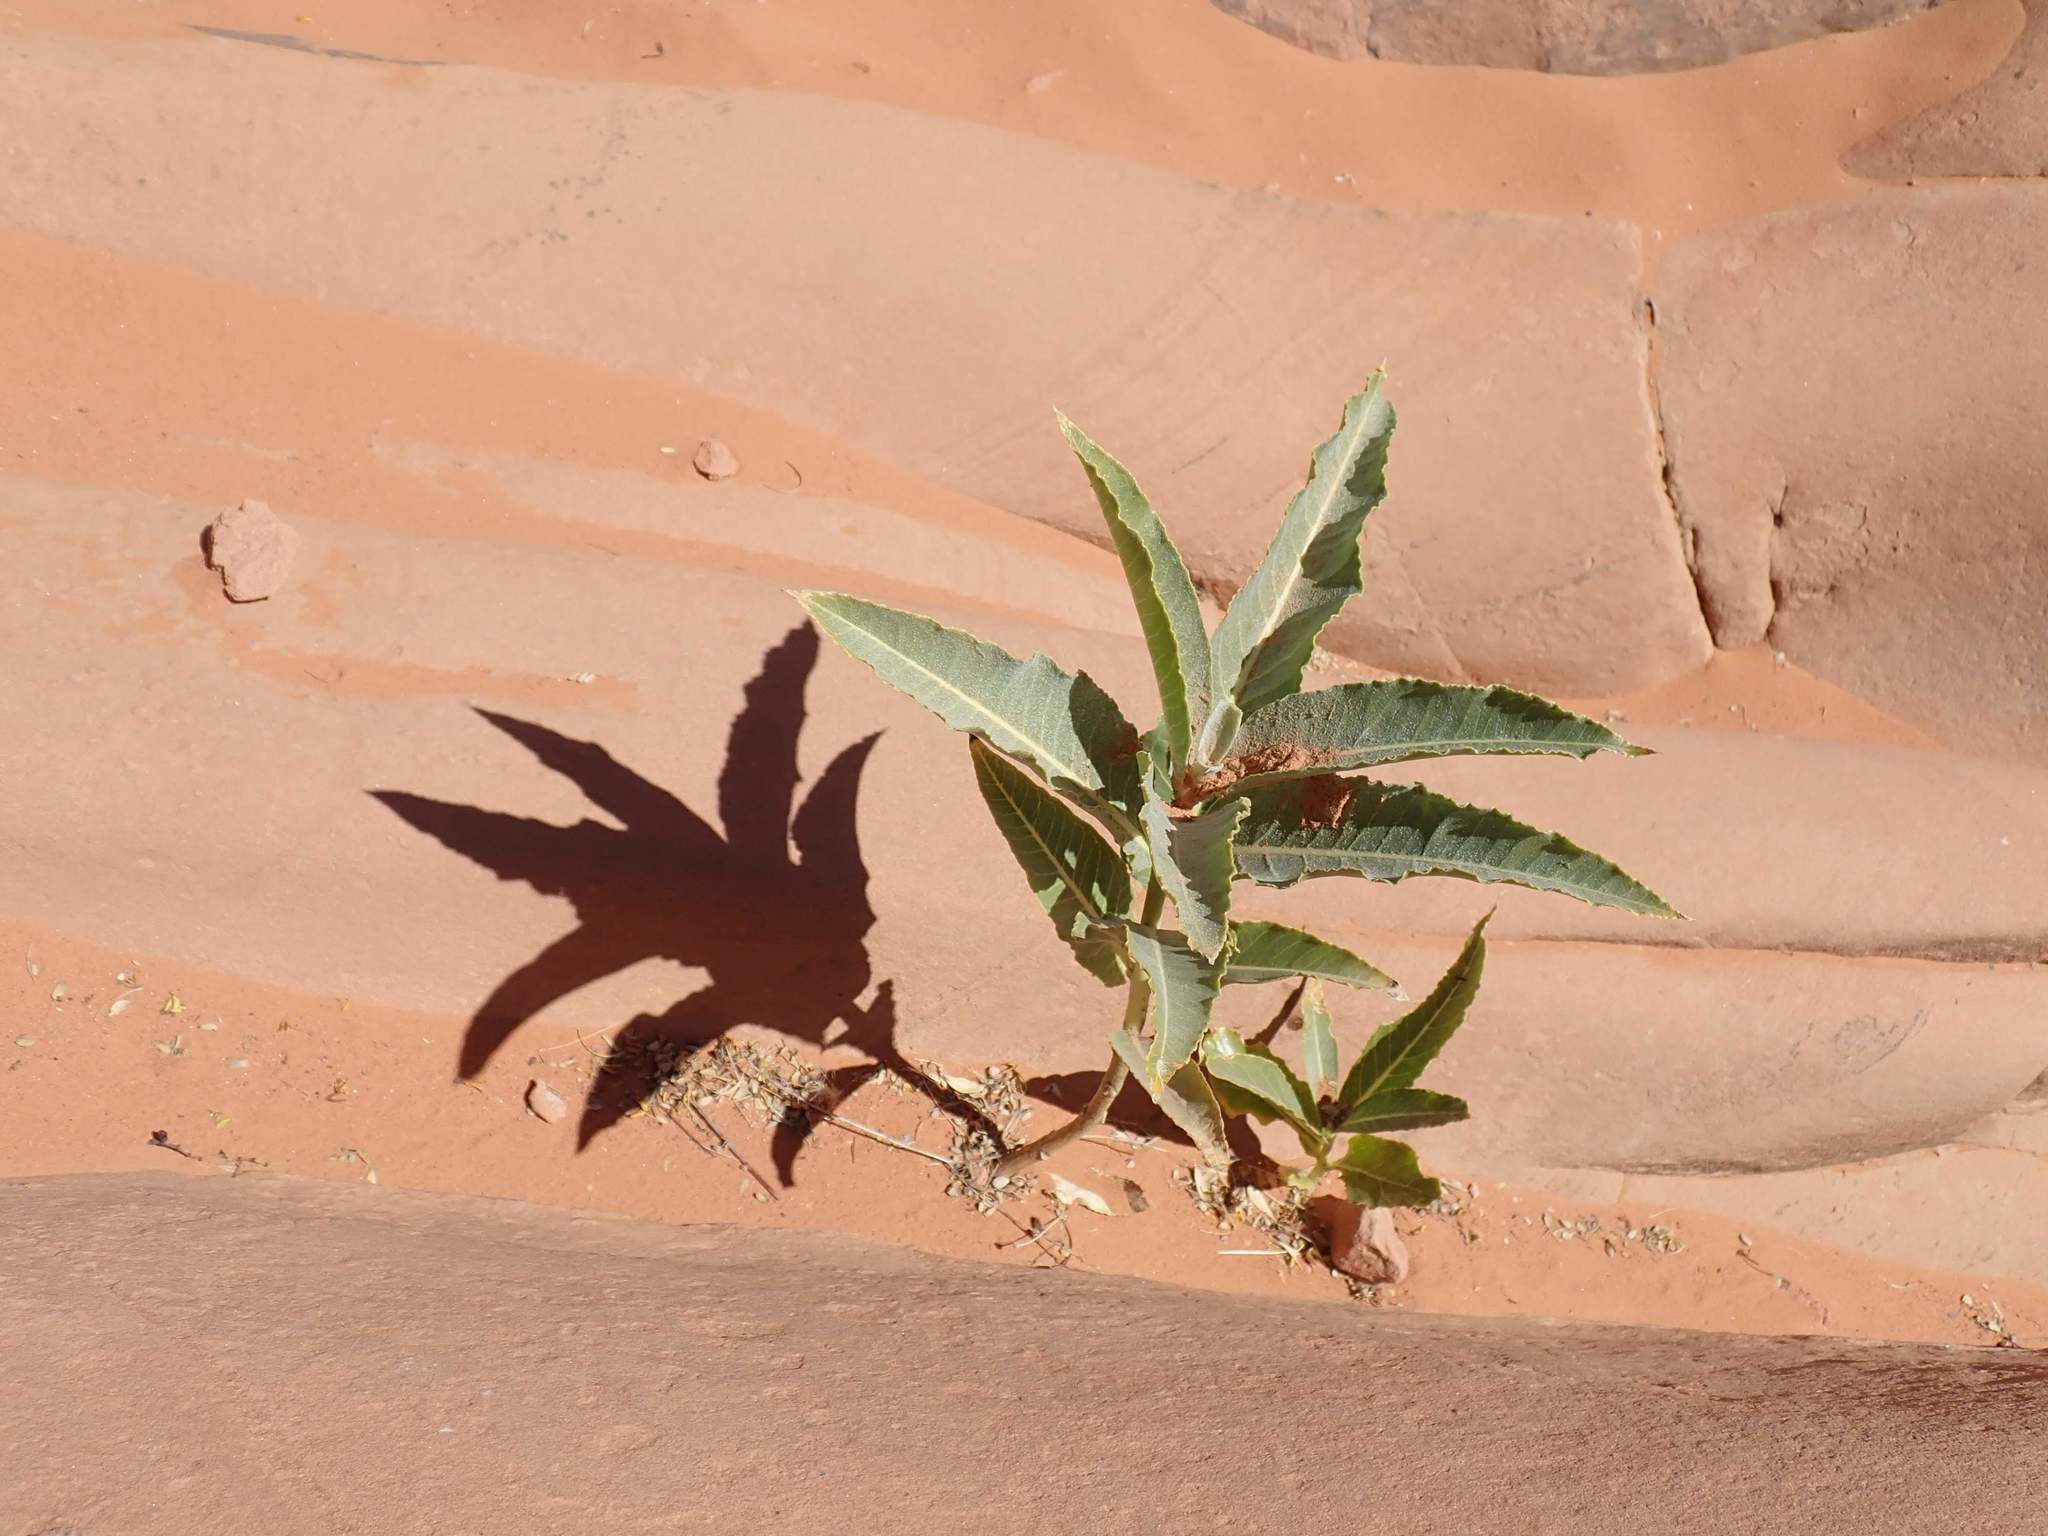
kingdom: Plantae
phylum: Tracheophyta
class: Magnoliopsida
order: Gentianales
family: Apocynaceae
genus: Asclepias
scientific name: Asclepias erosa
